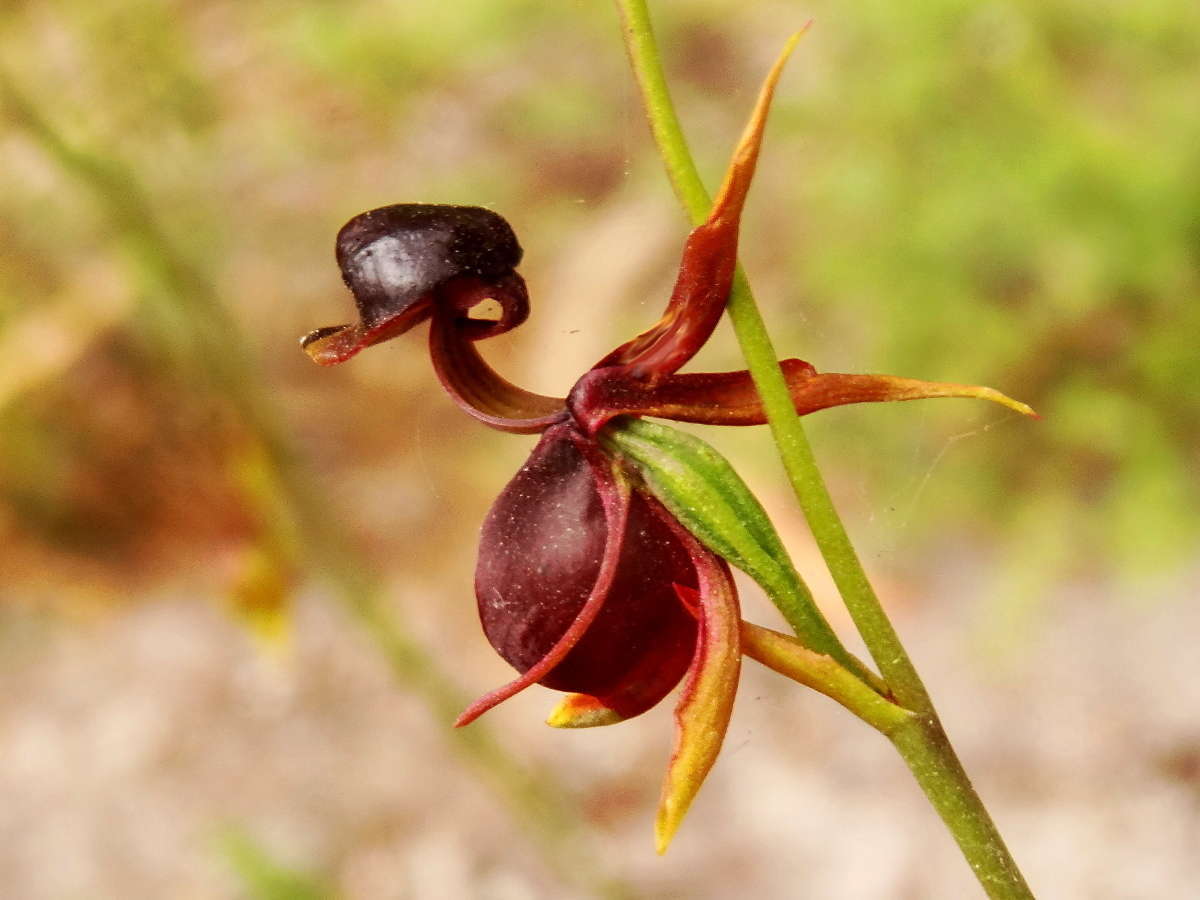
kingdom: Plantae
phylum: Tracheophyta
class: Liliopsida
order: Asparagales
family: Orchidaceae
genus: Caleana
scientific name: Caleana major
